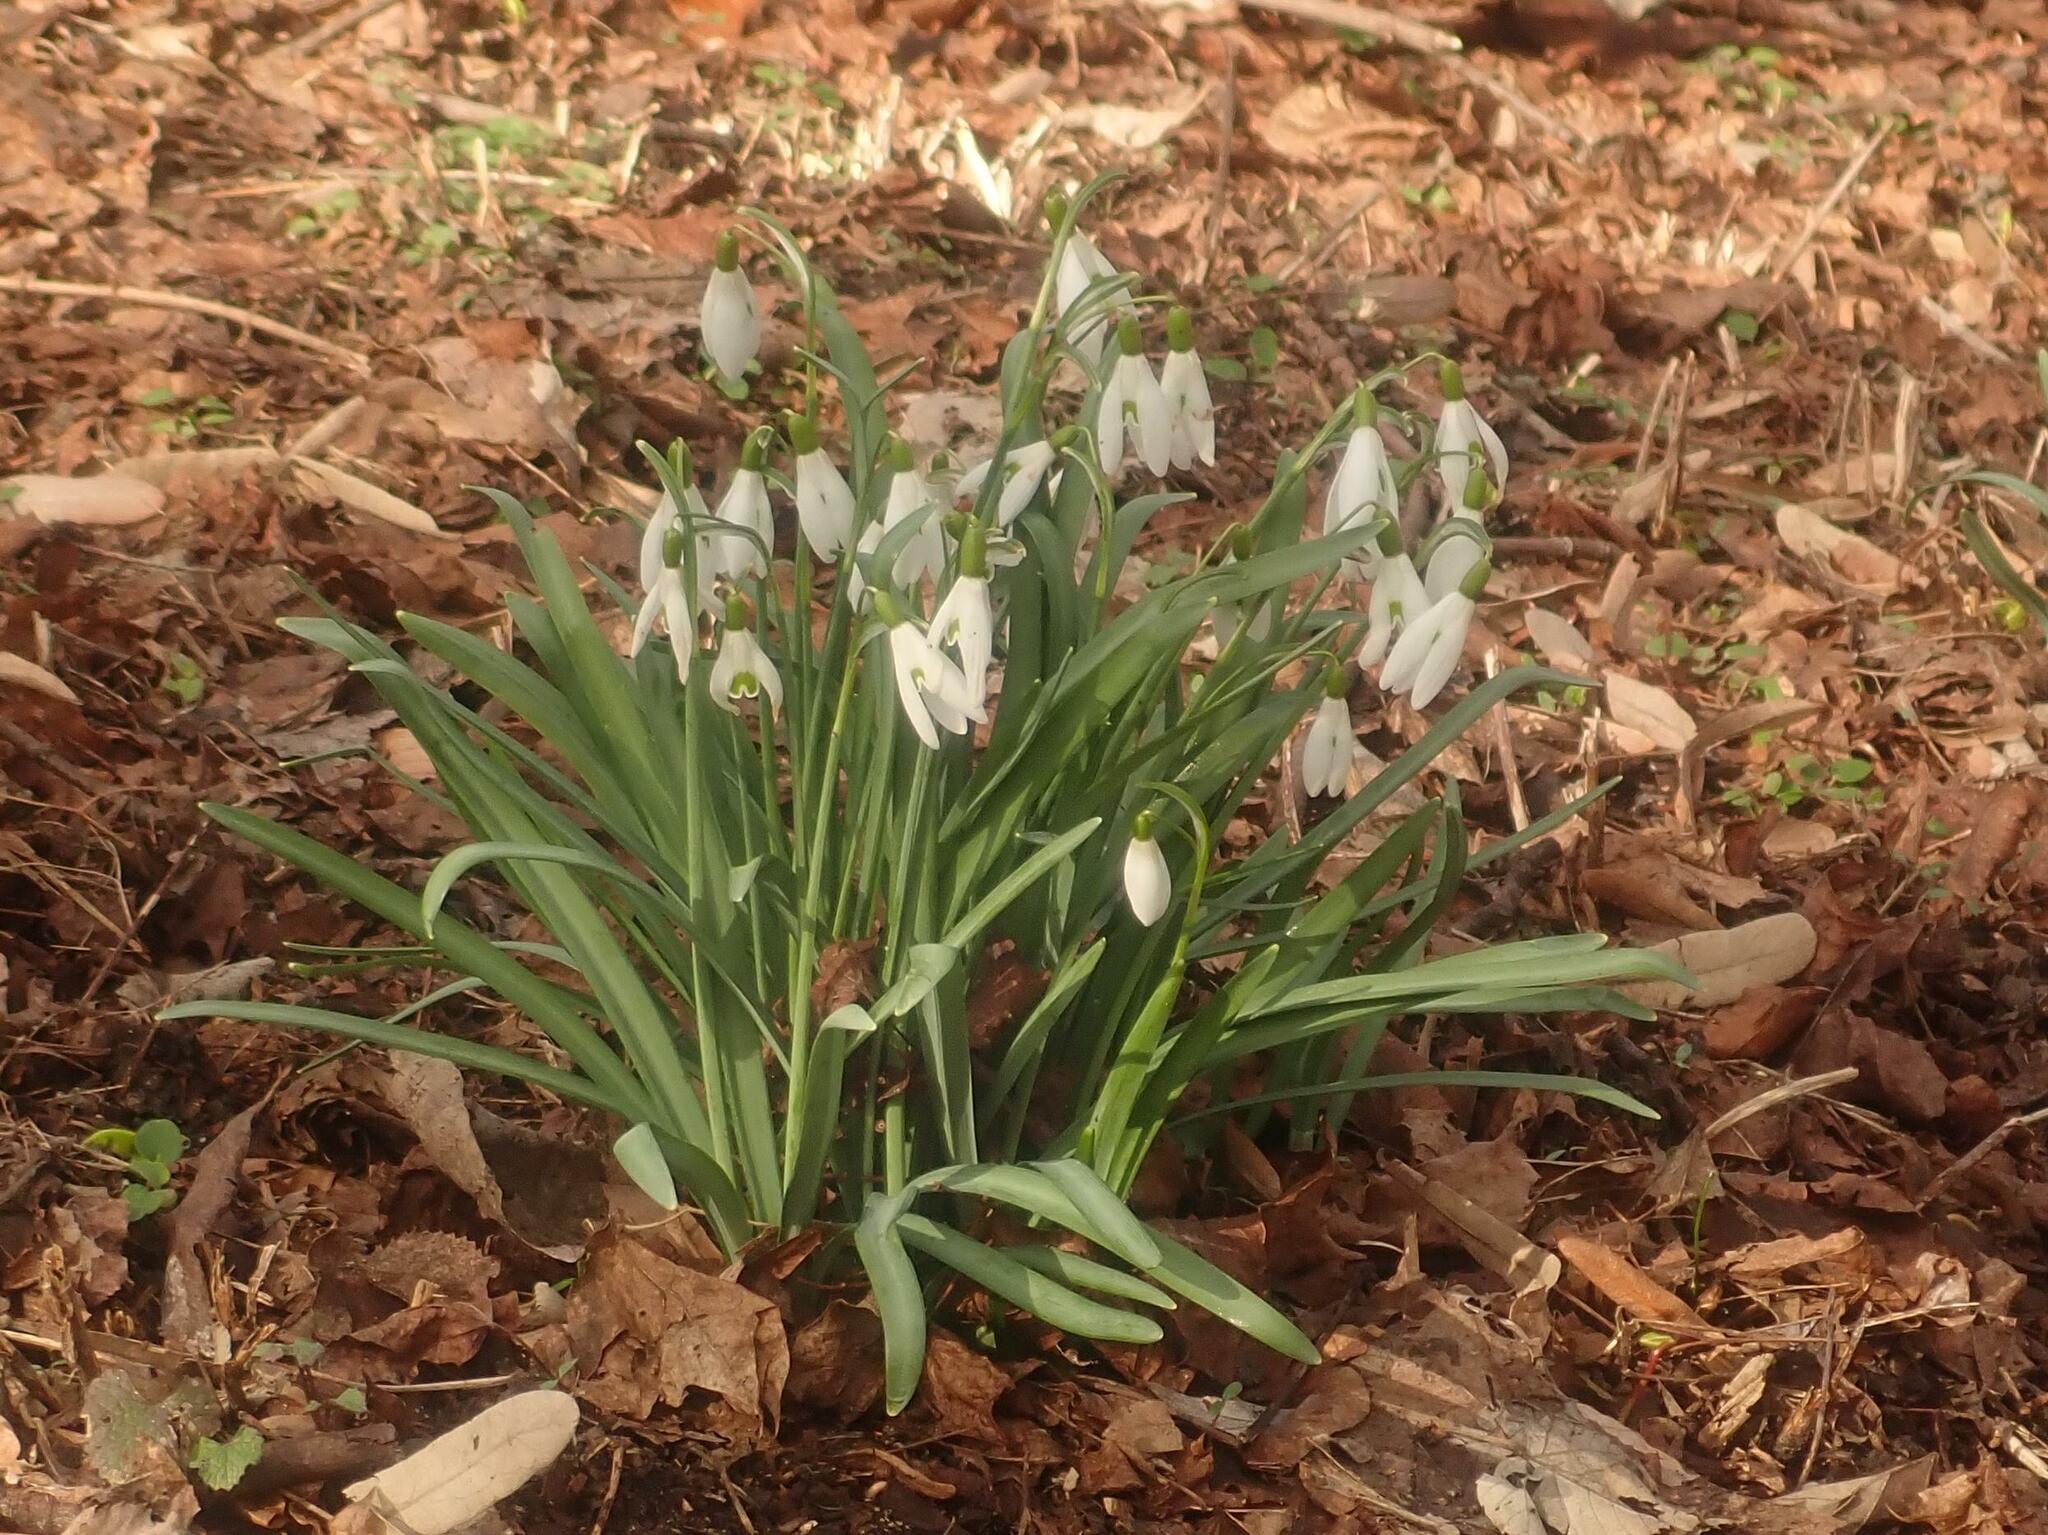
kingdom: Plantae
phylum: Tracheophyta
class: Liliopsida
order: Asparagales
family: Amaryllidaceae
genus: Galanthus
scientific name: Galanthus nivalis
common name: Snowdrop
